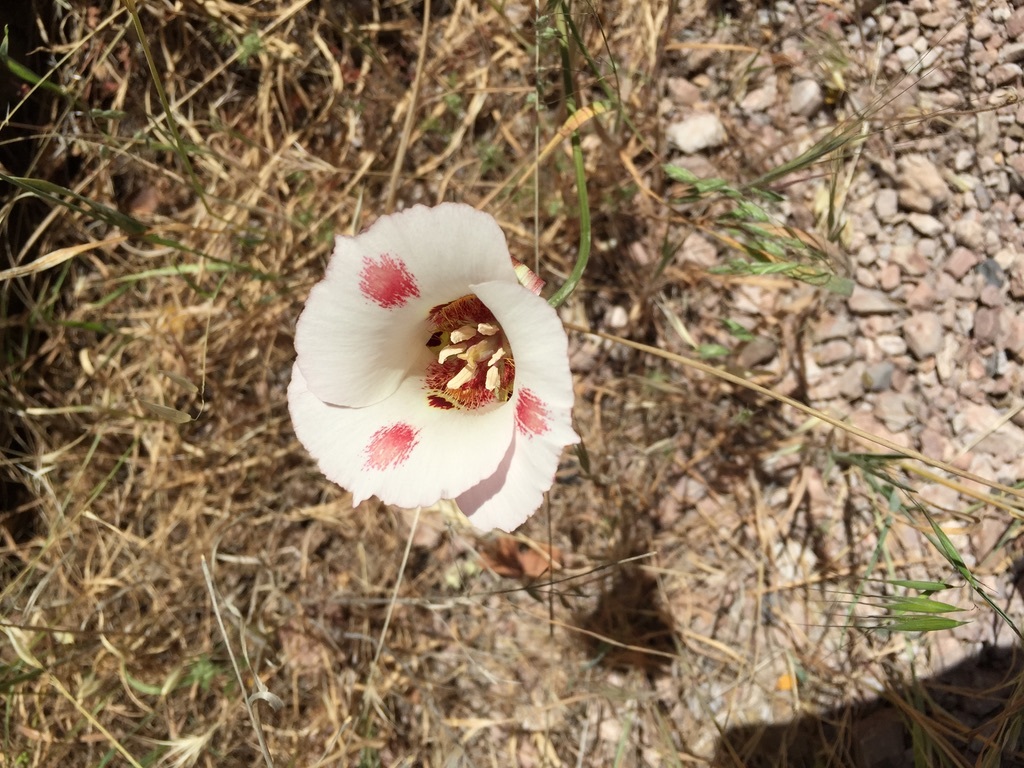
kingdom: Plantae
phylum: Tracheophyta
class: Liliopsida
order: Liliales
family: Liliaceae
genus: Calochortus
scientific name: Calochortus venustus
